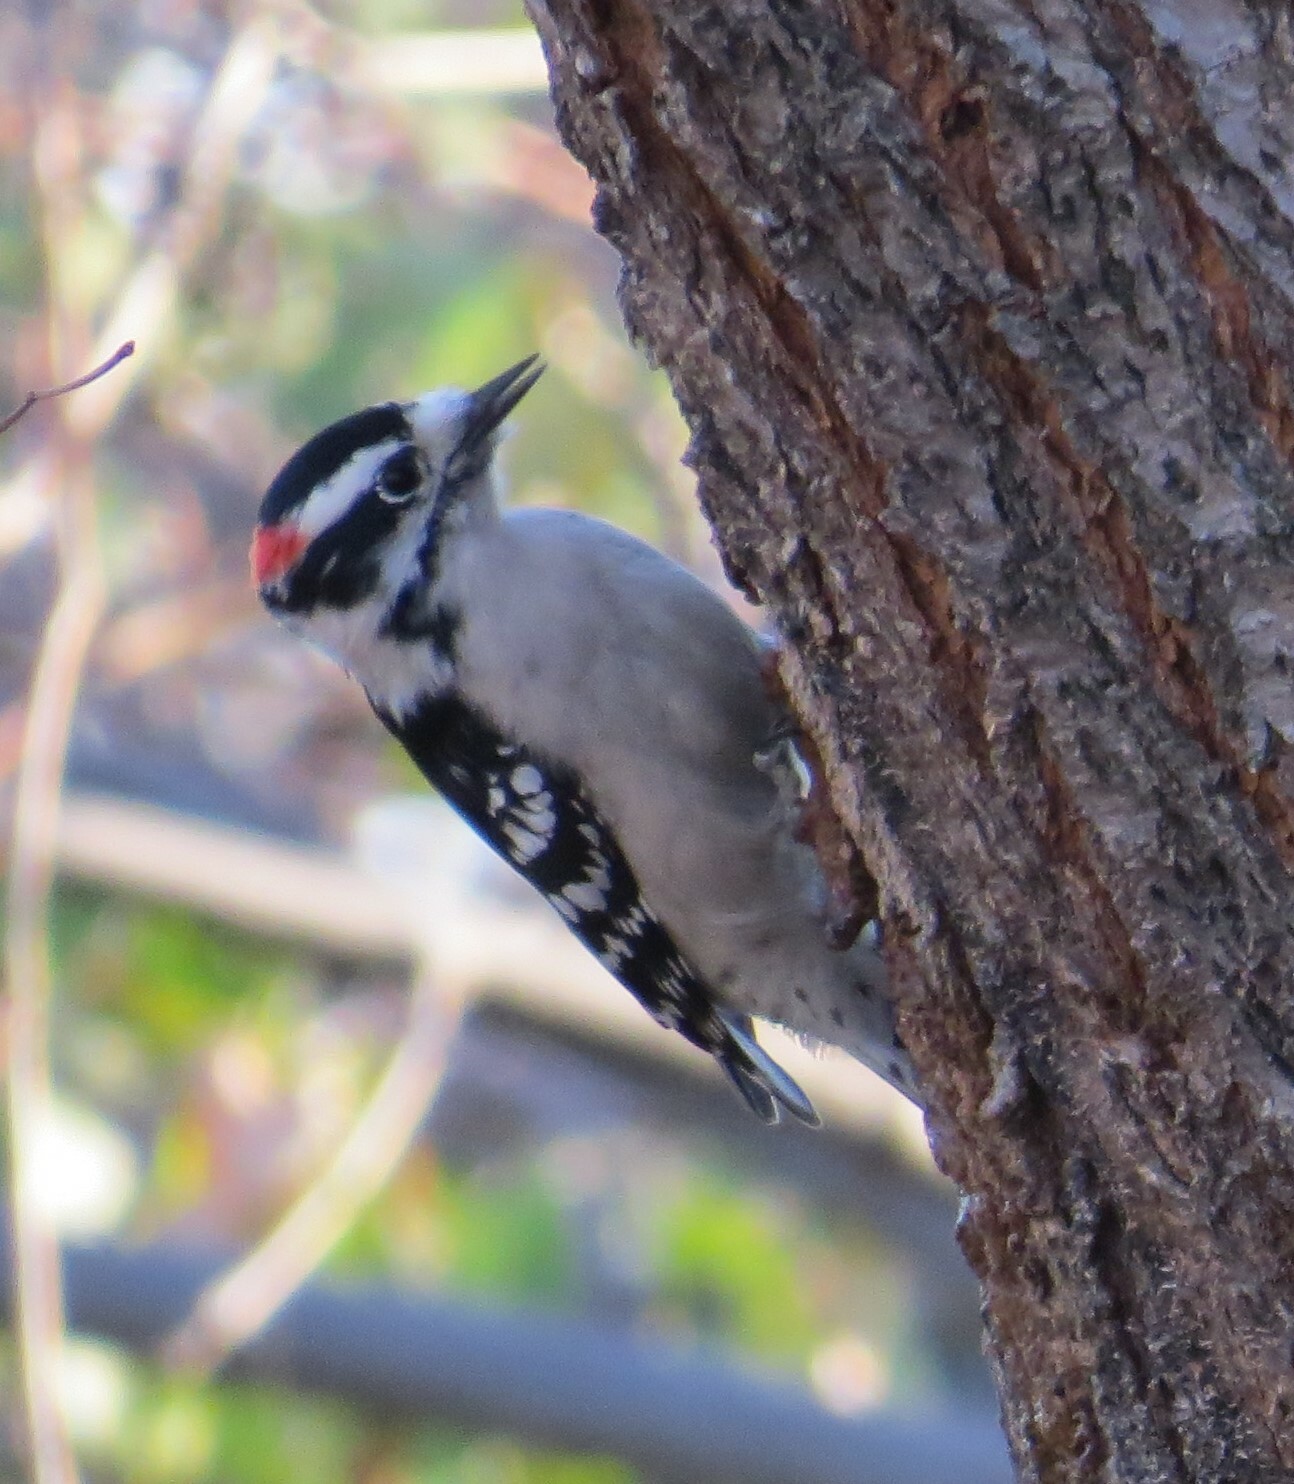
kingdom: Animalia
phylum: Chordata
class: Aves
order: Piciformes
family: Picidae
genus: Dryobates
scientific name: Dryobates pubescens
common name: Downy woodpecker
